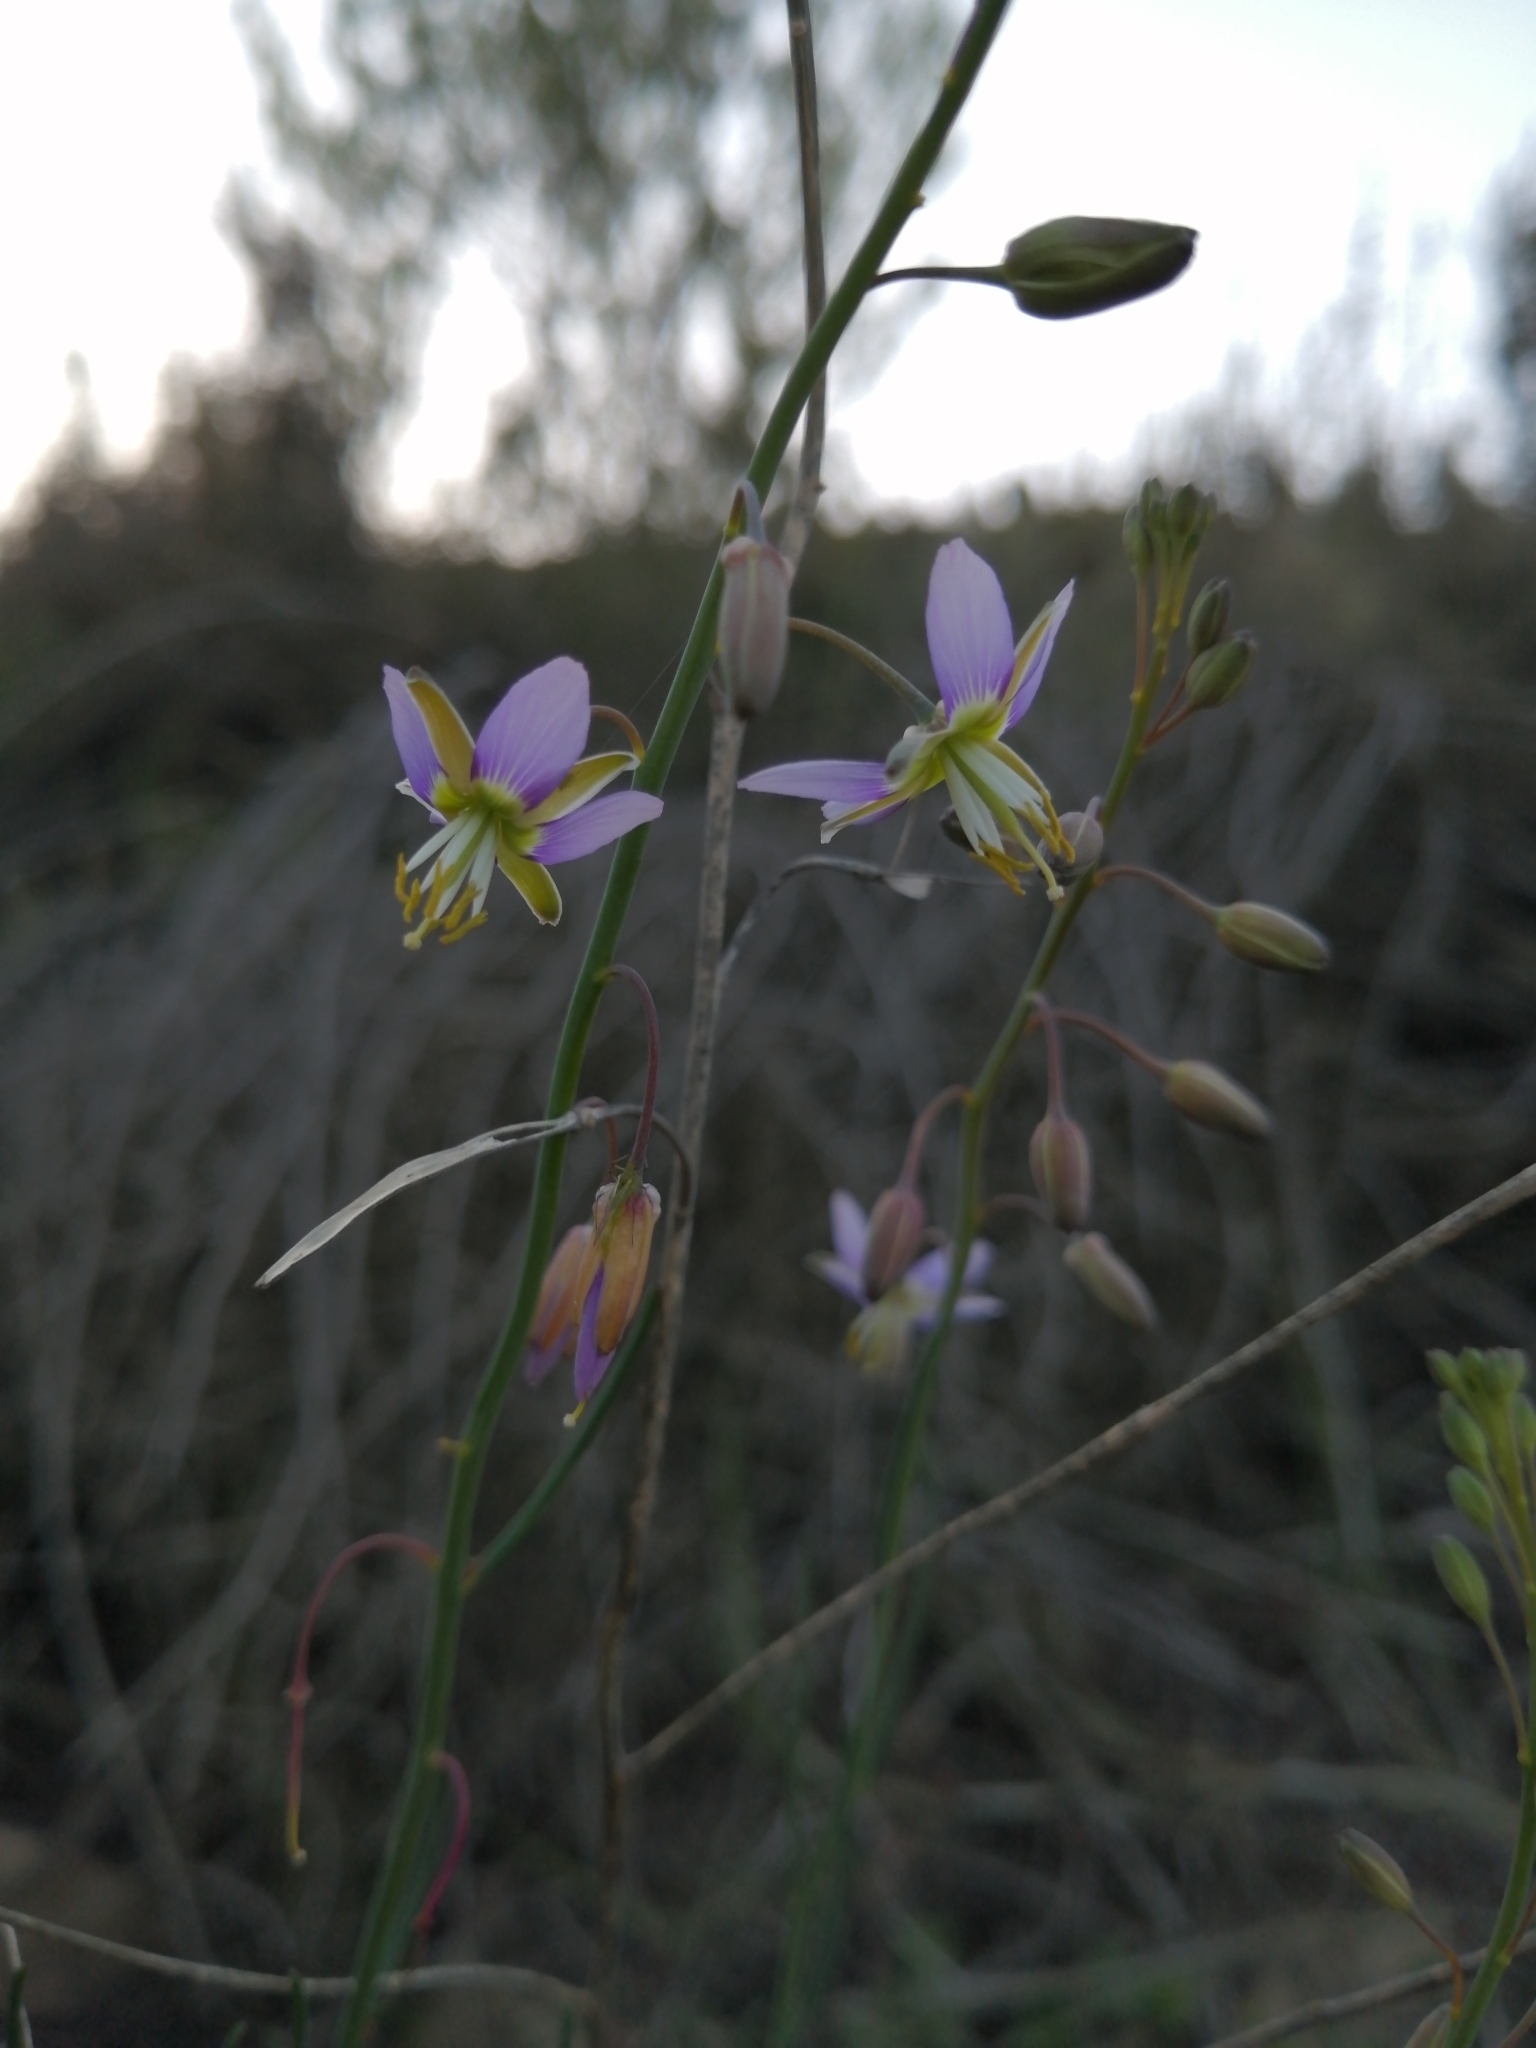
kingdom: Plantae
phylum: Tracheophyta
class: Magnoliopsida
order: Brassicales
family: Brassicaceae
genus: Heliophila
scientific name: Heliophila cornuta
